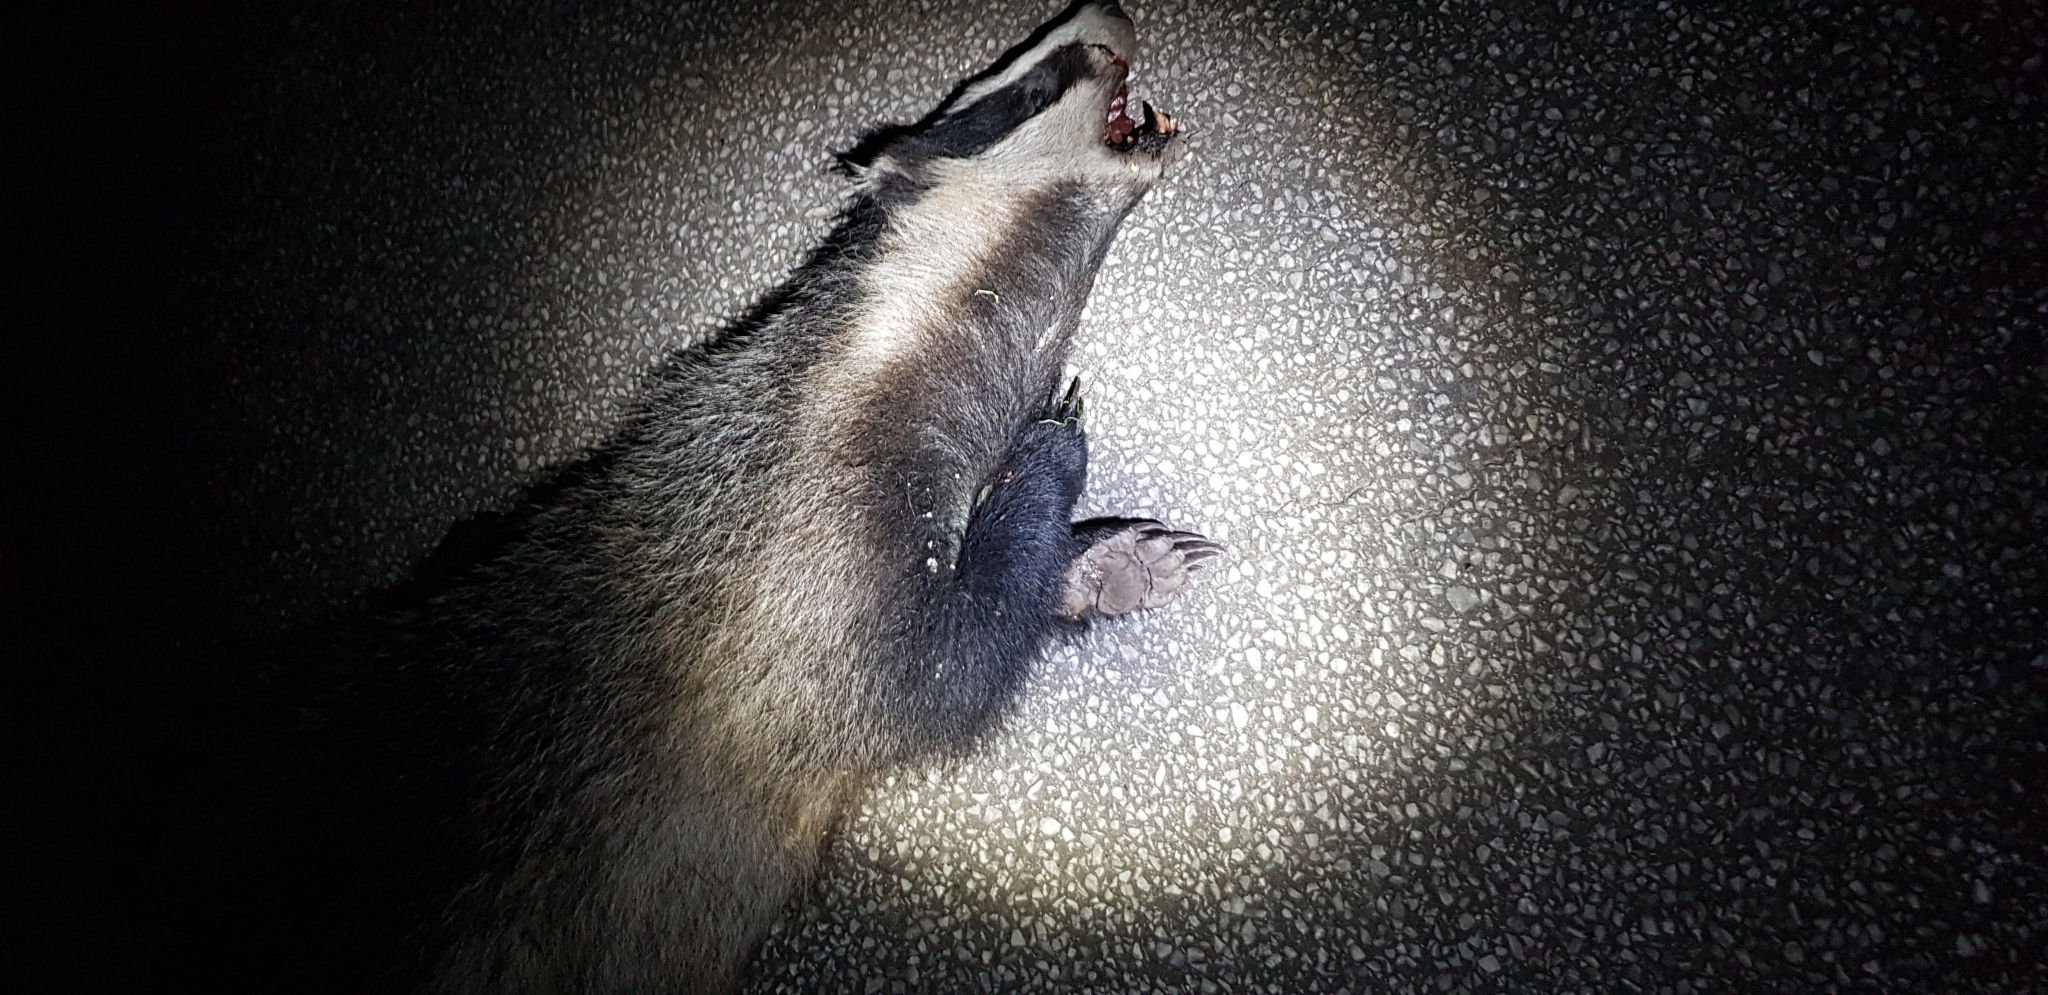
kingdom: Animalia
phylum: Chordata
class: Mammalia
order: Carnivora
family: Mustelidae
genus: Meles
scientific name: Meles meles
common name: Eurasian badger
